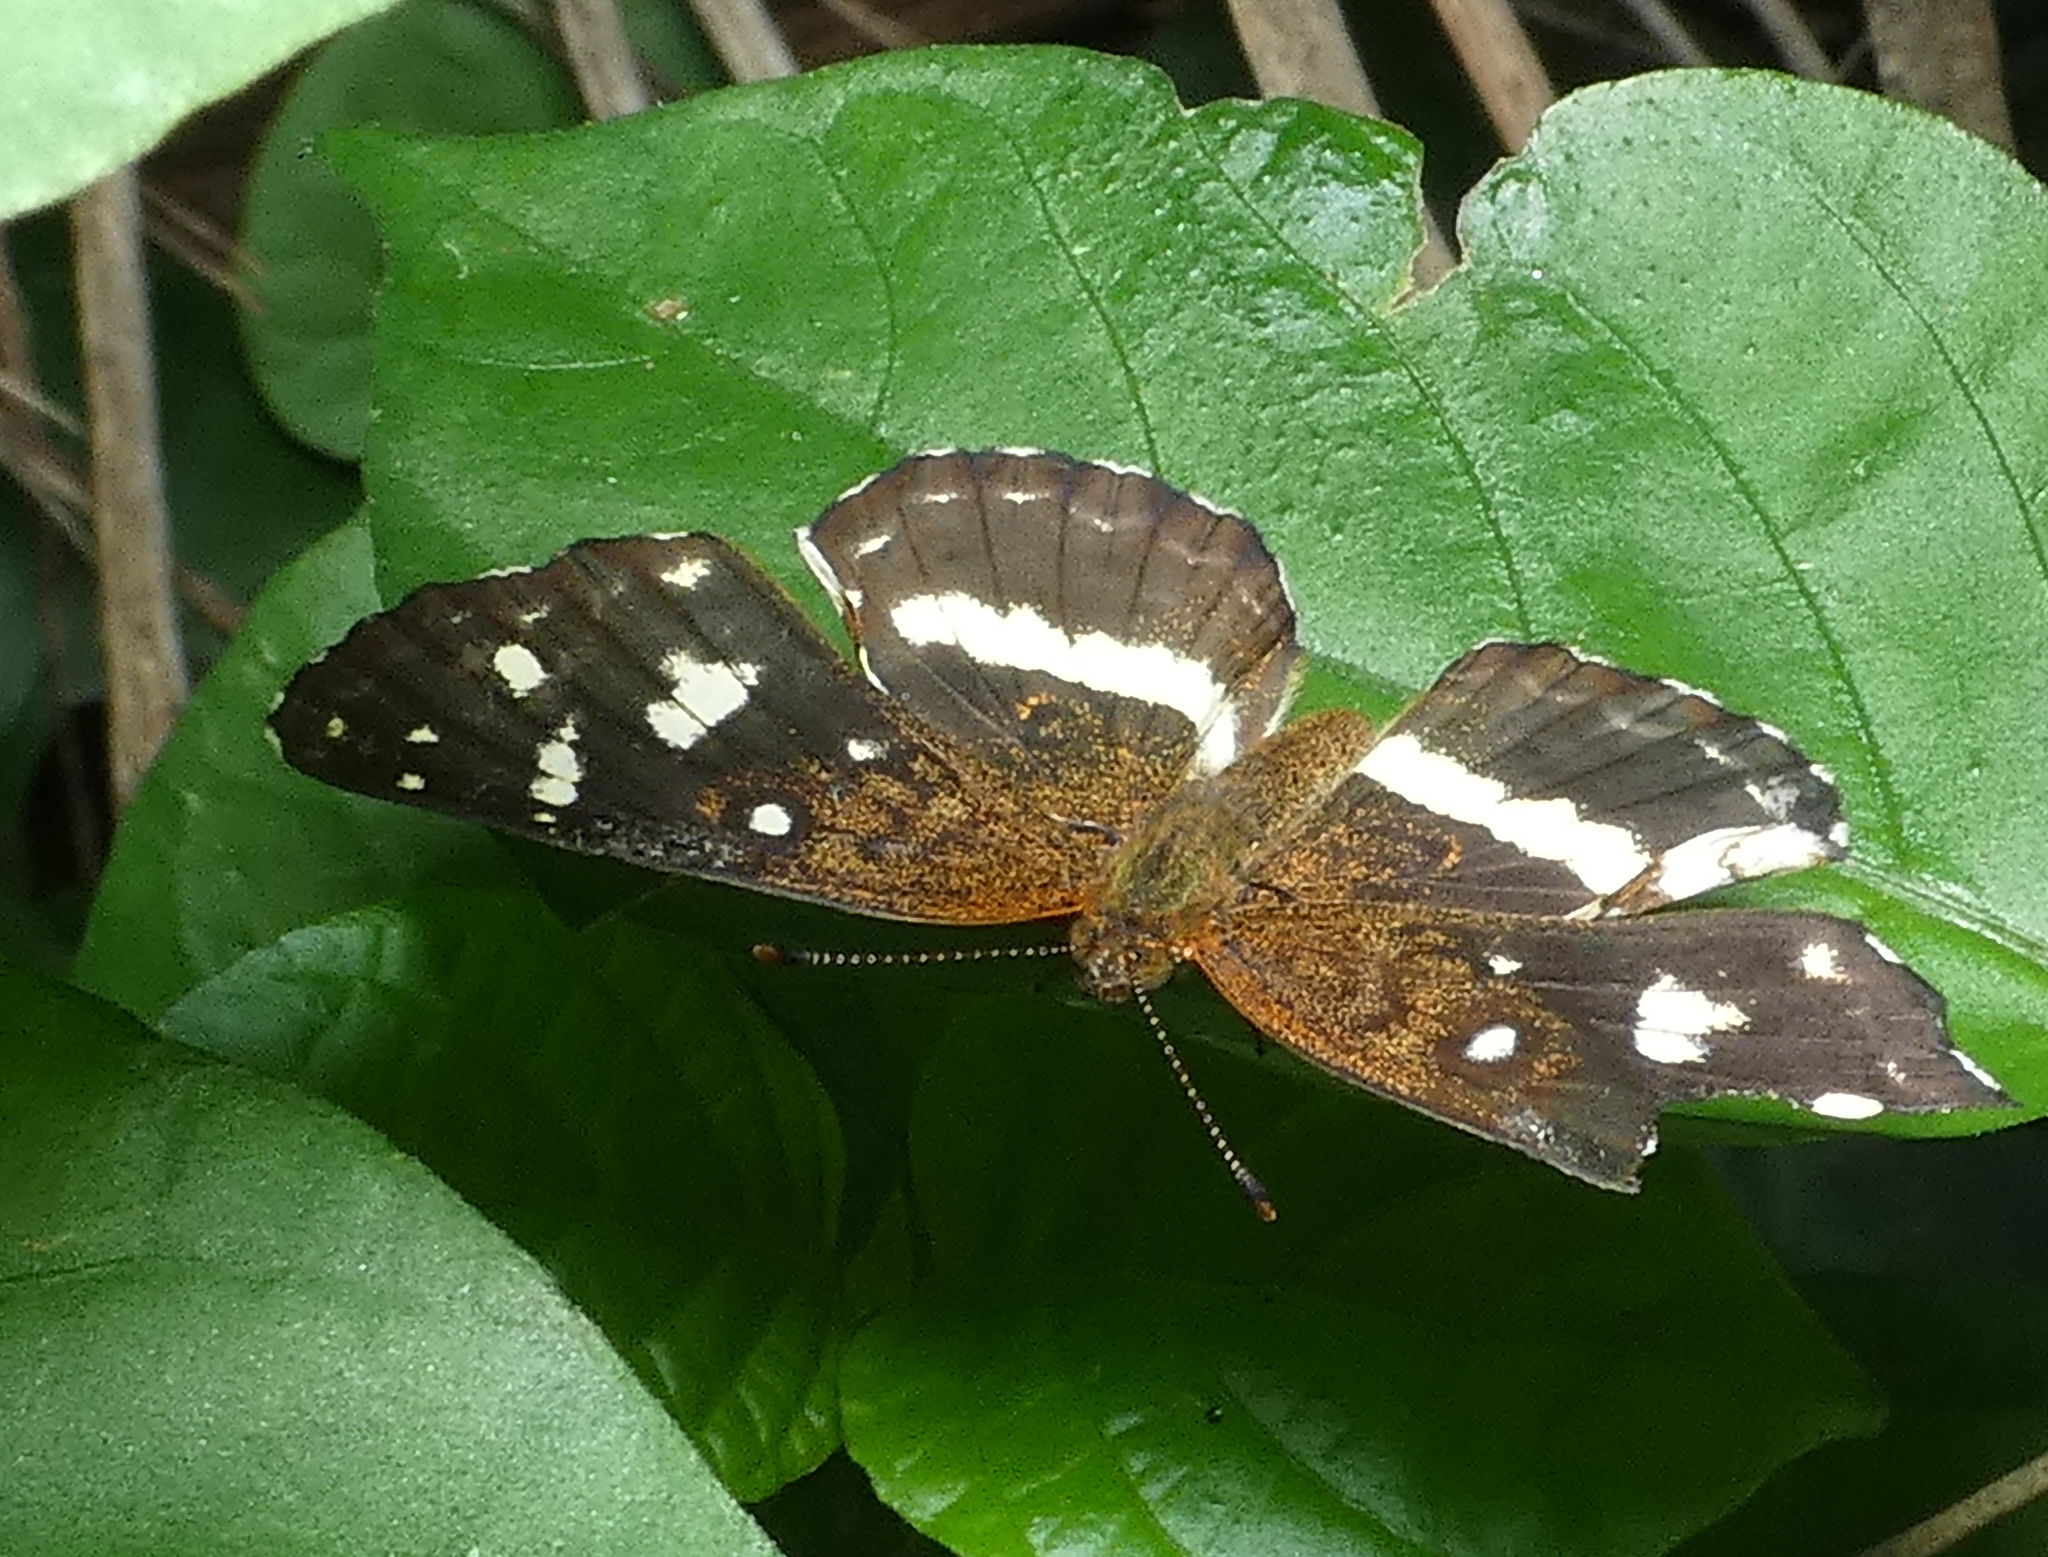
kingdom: Animalia
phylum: Arthropoda
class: Insecta
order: Lepidoptera
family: Nymphalidae
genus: Ortilia
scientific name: Ortilia ithra
